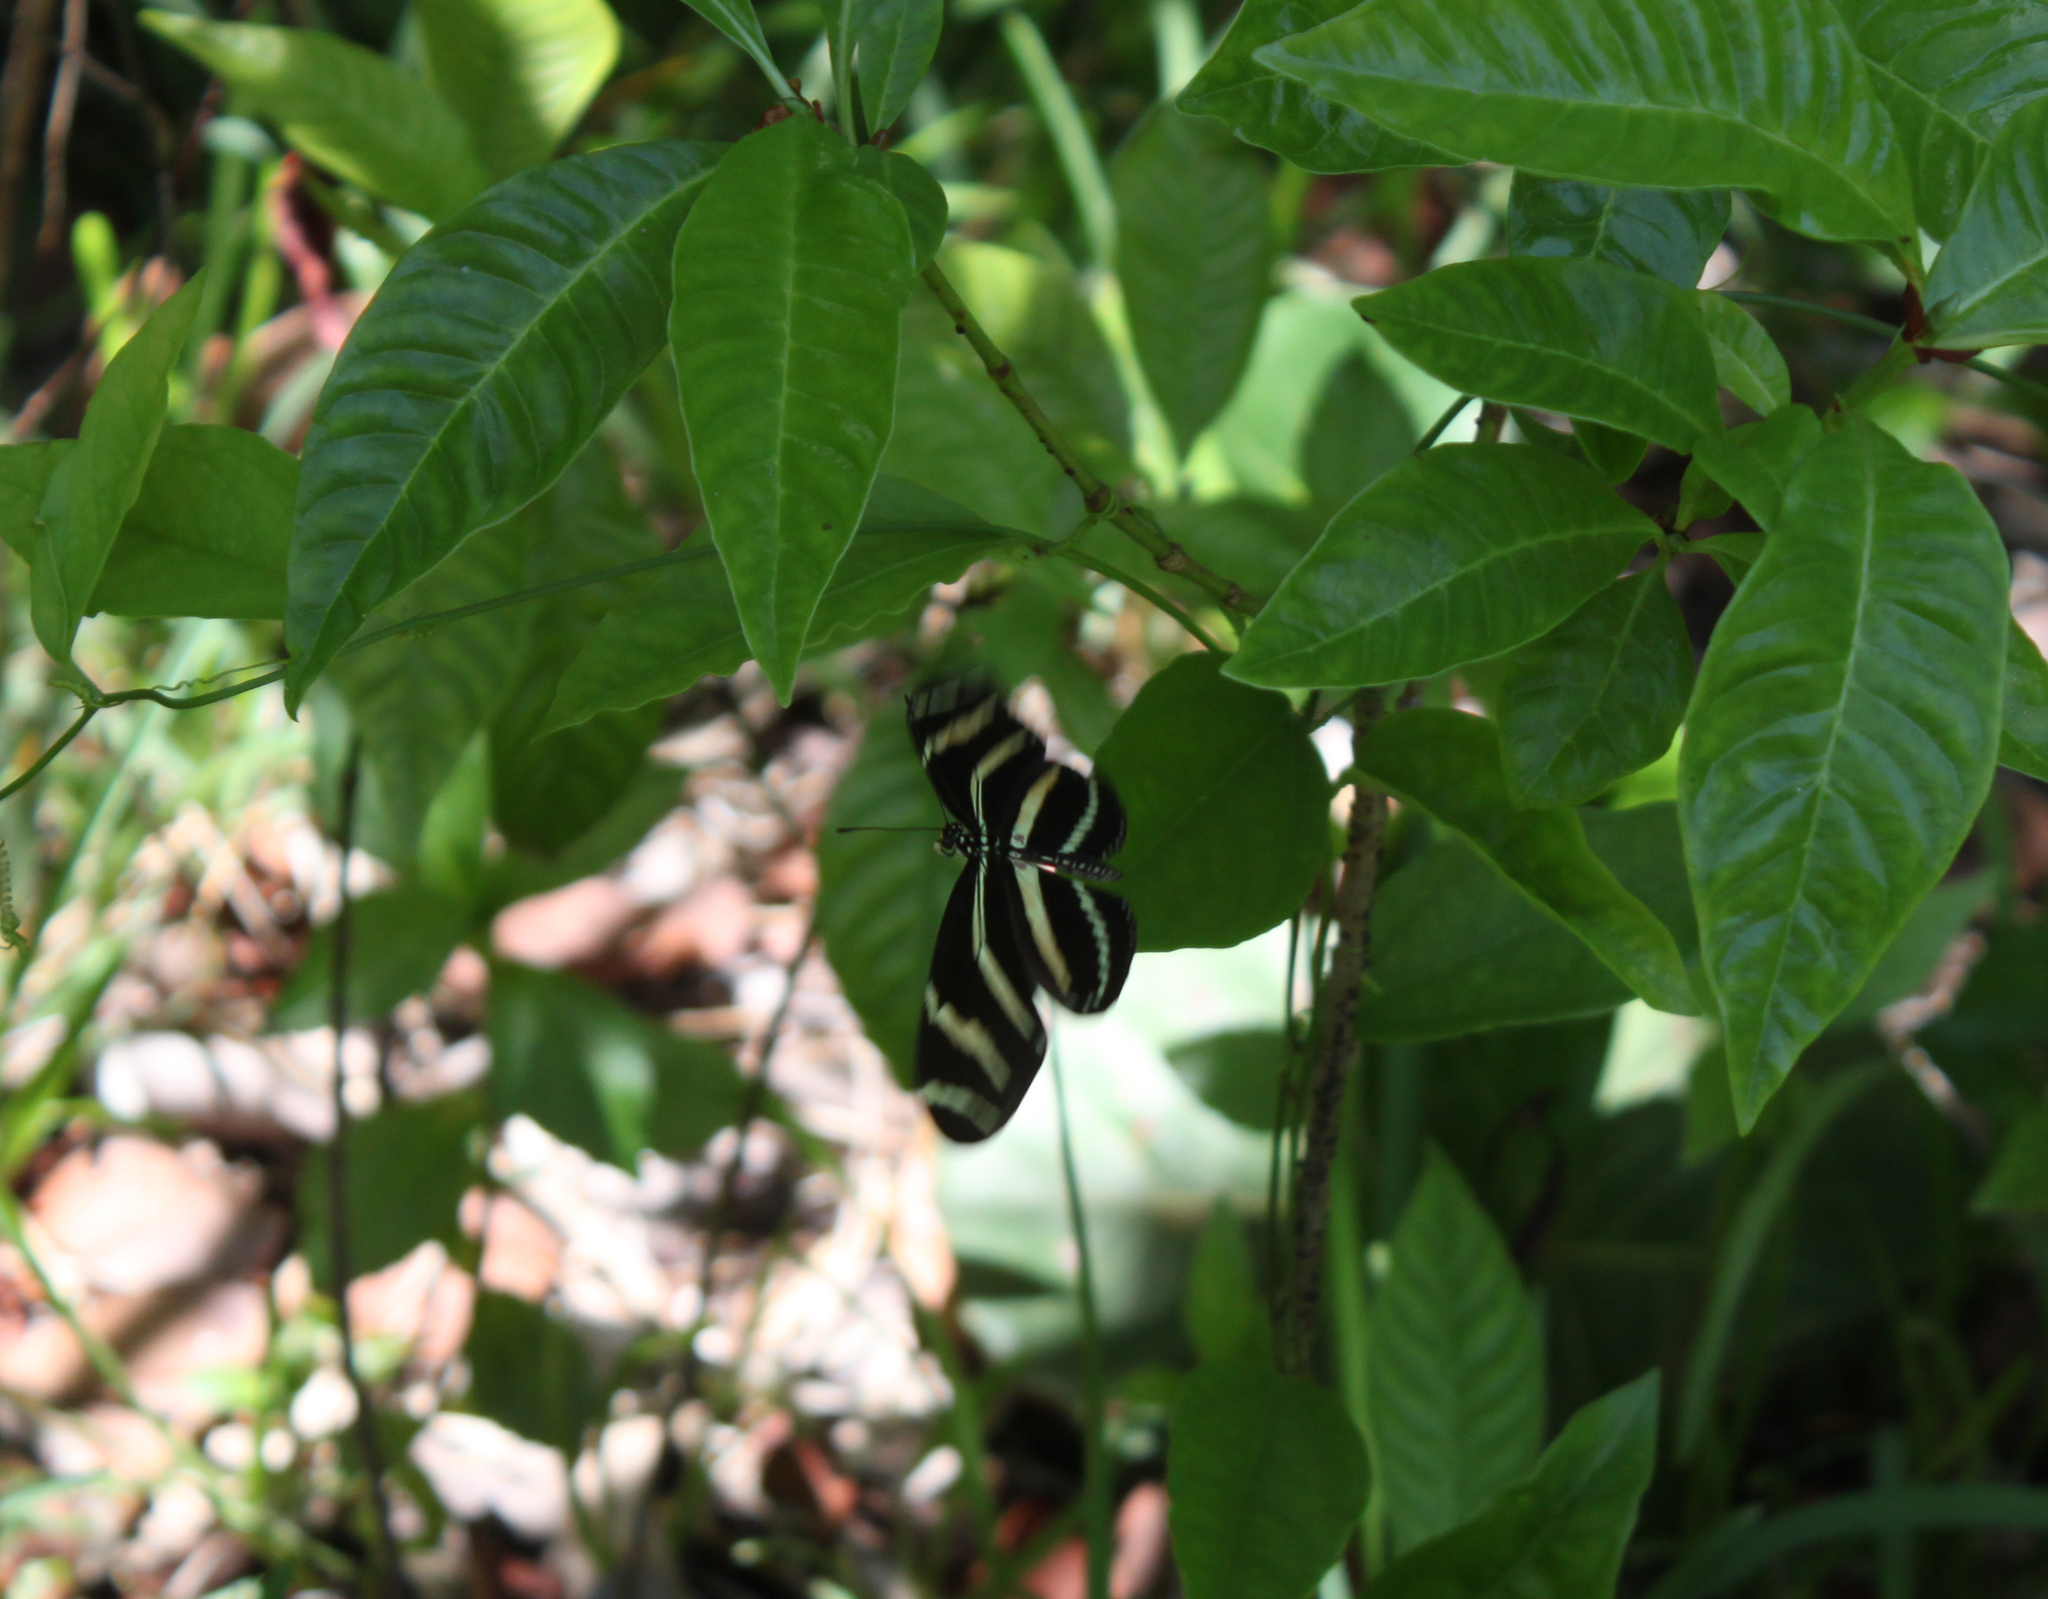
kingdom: Animalia
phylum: Arthropoda
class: Insecta
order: Lepidoptera
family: Nymphalidae
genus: Heliconius
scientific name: Heliconius charithonia
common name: Zebra long wing
